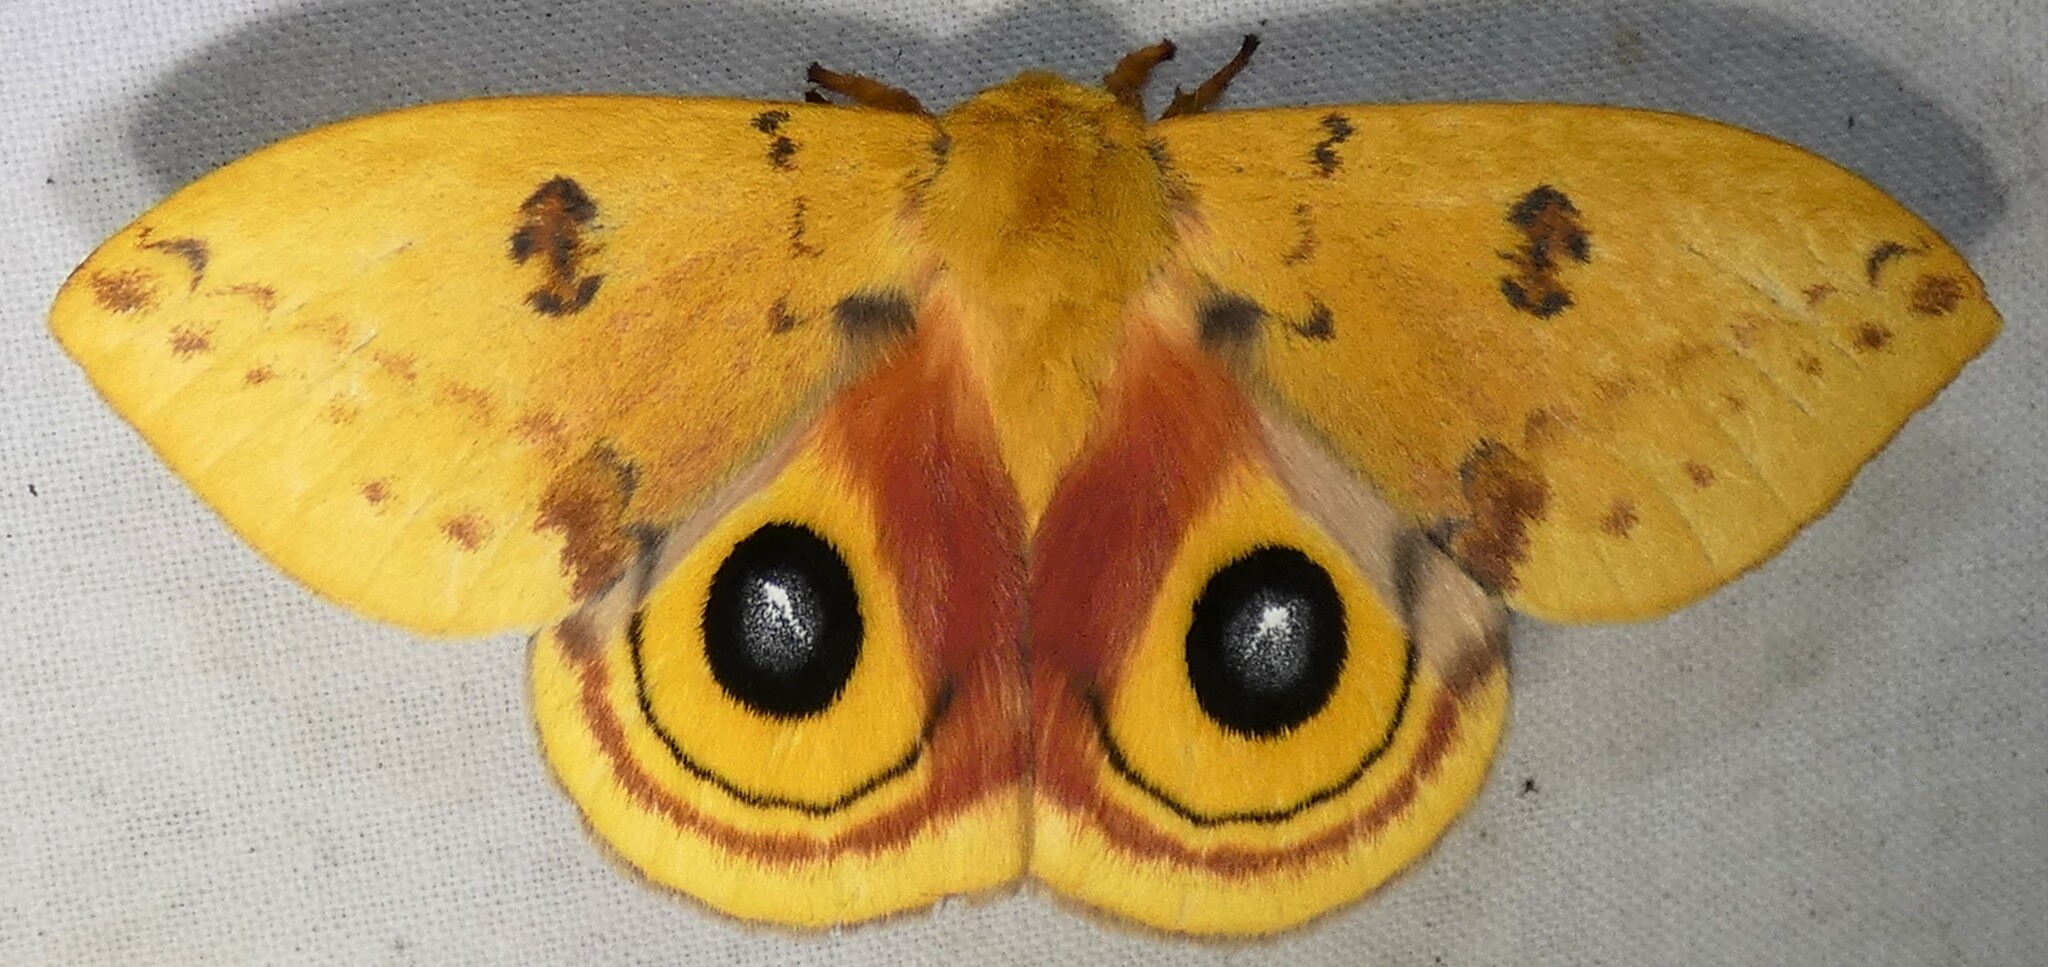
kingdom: Animalia
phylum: Arthropoda
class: Insecta
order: Lepidoptera
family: Saturniidae
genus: Automeris
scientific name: Automeris io
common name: Io moth
